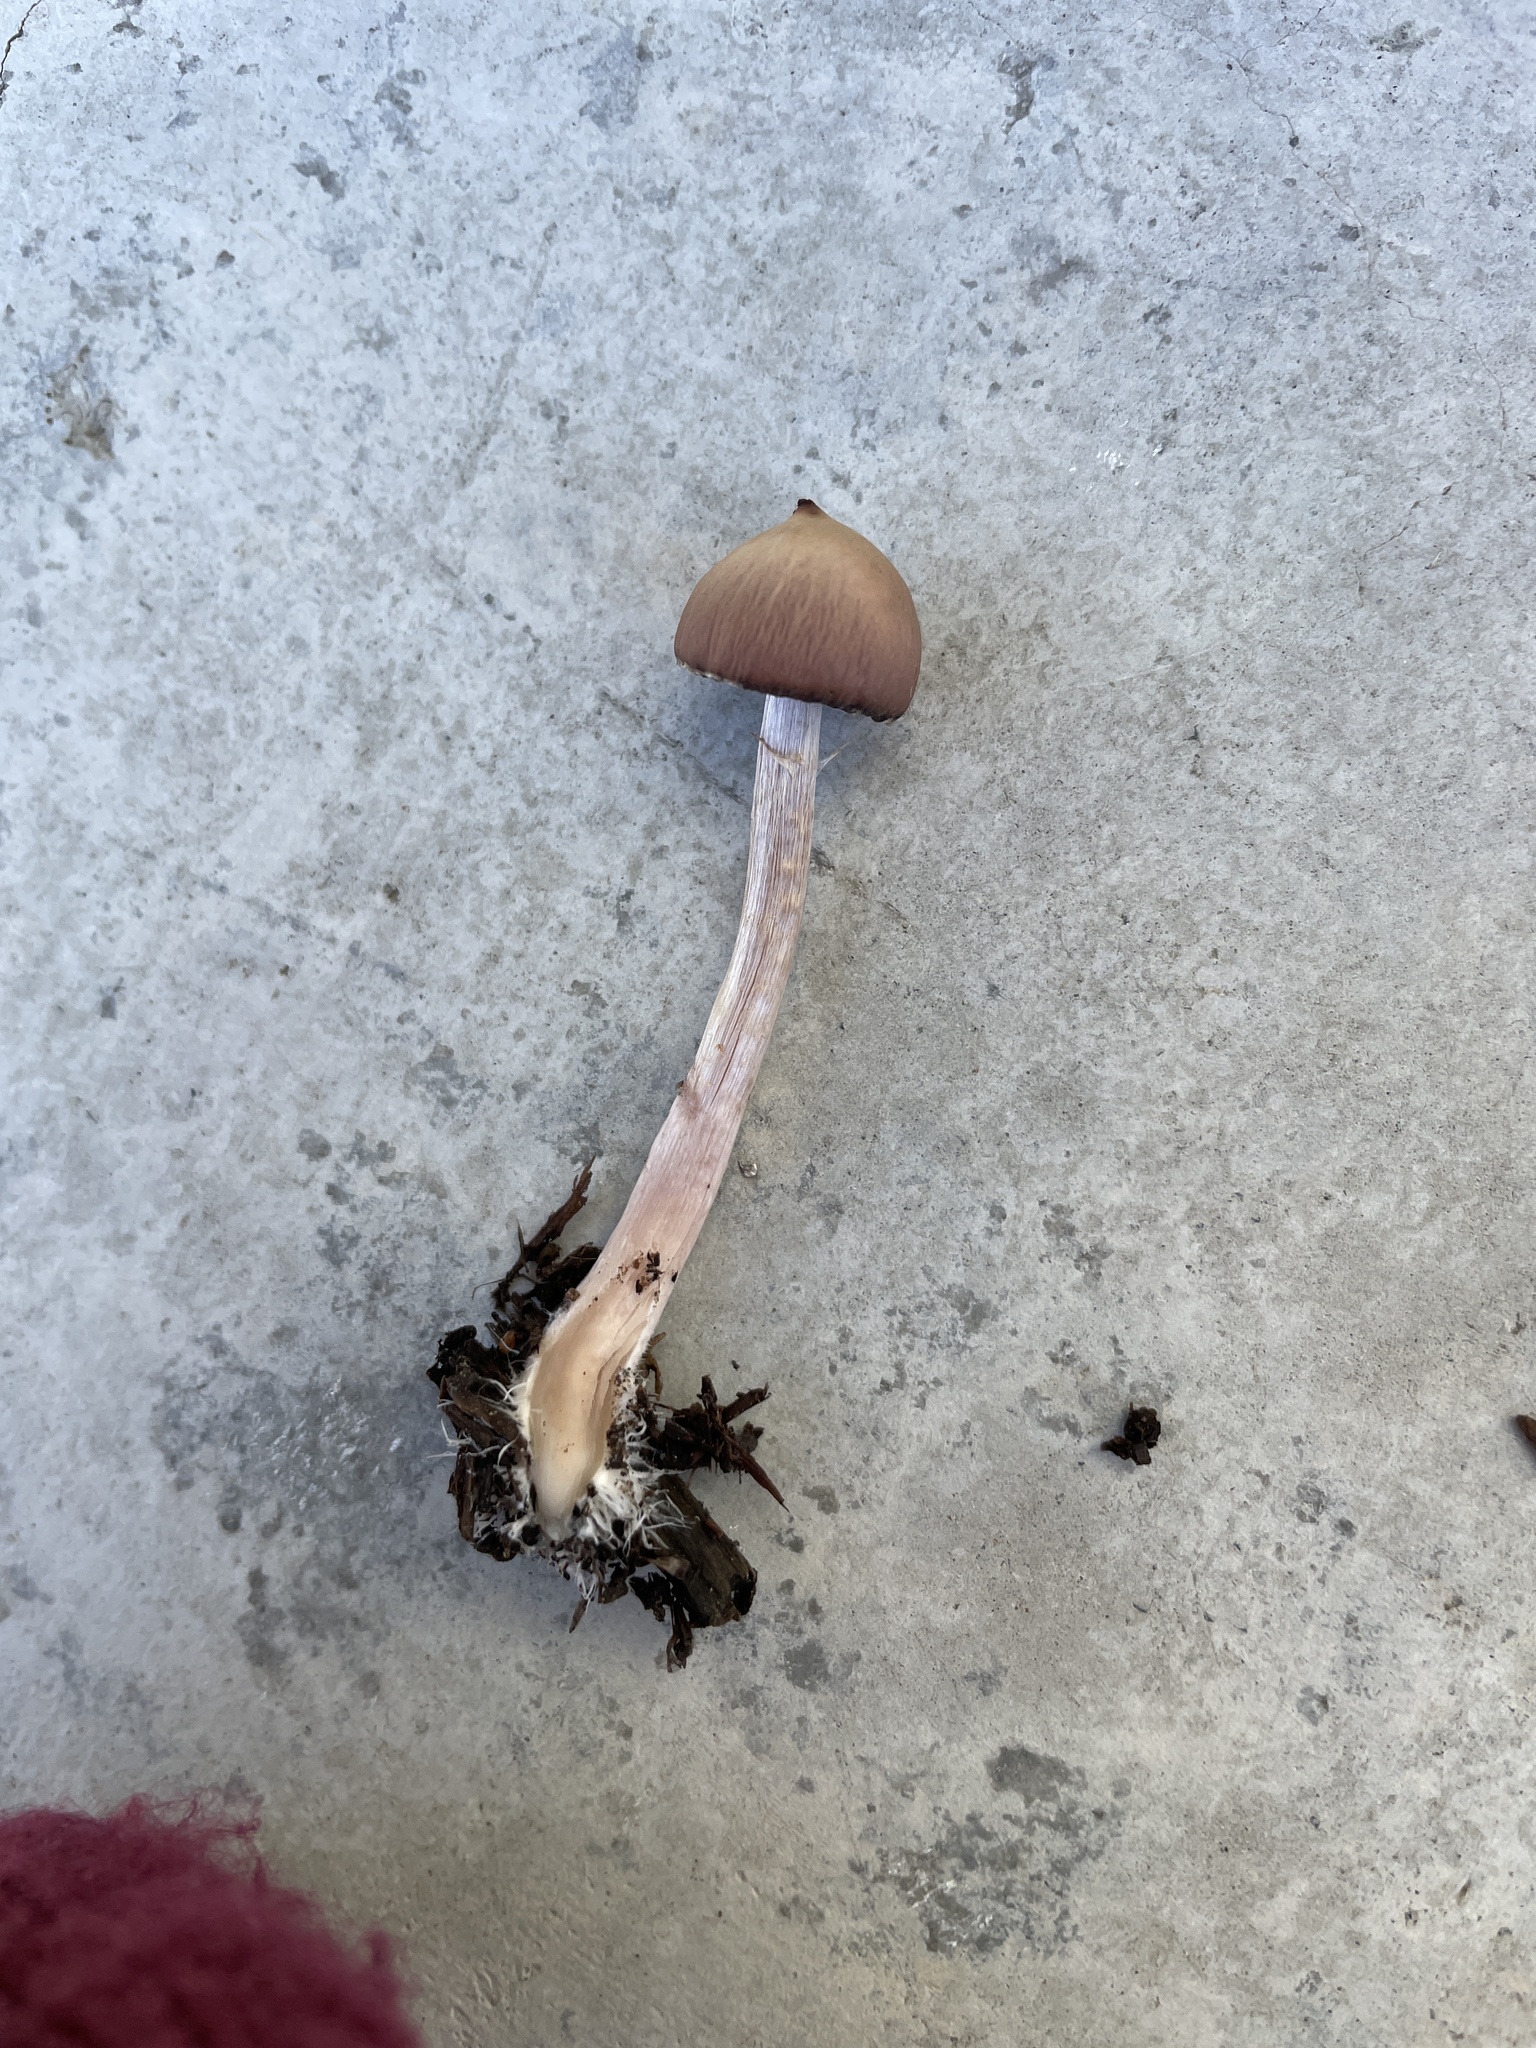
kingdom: Fungi
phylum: Basidiomycota
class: Agaricomycetes
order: Agaricales
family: Psathyrellaceae
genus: Psathyrella
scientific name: Psathyrella bipellis
